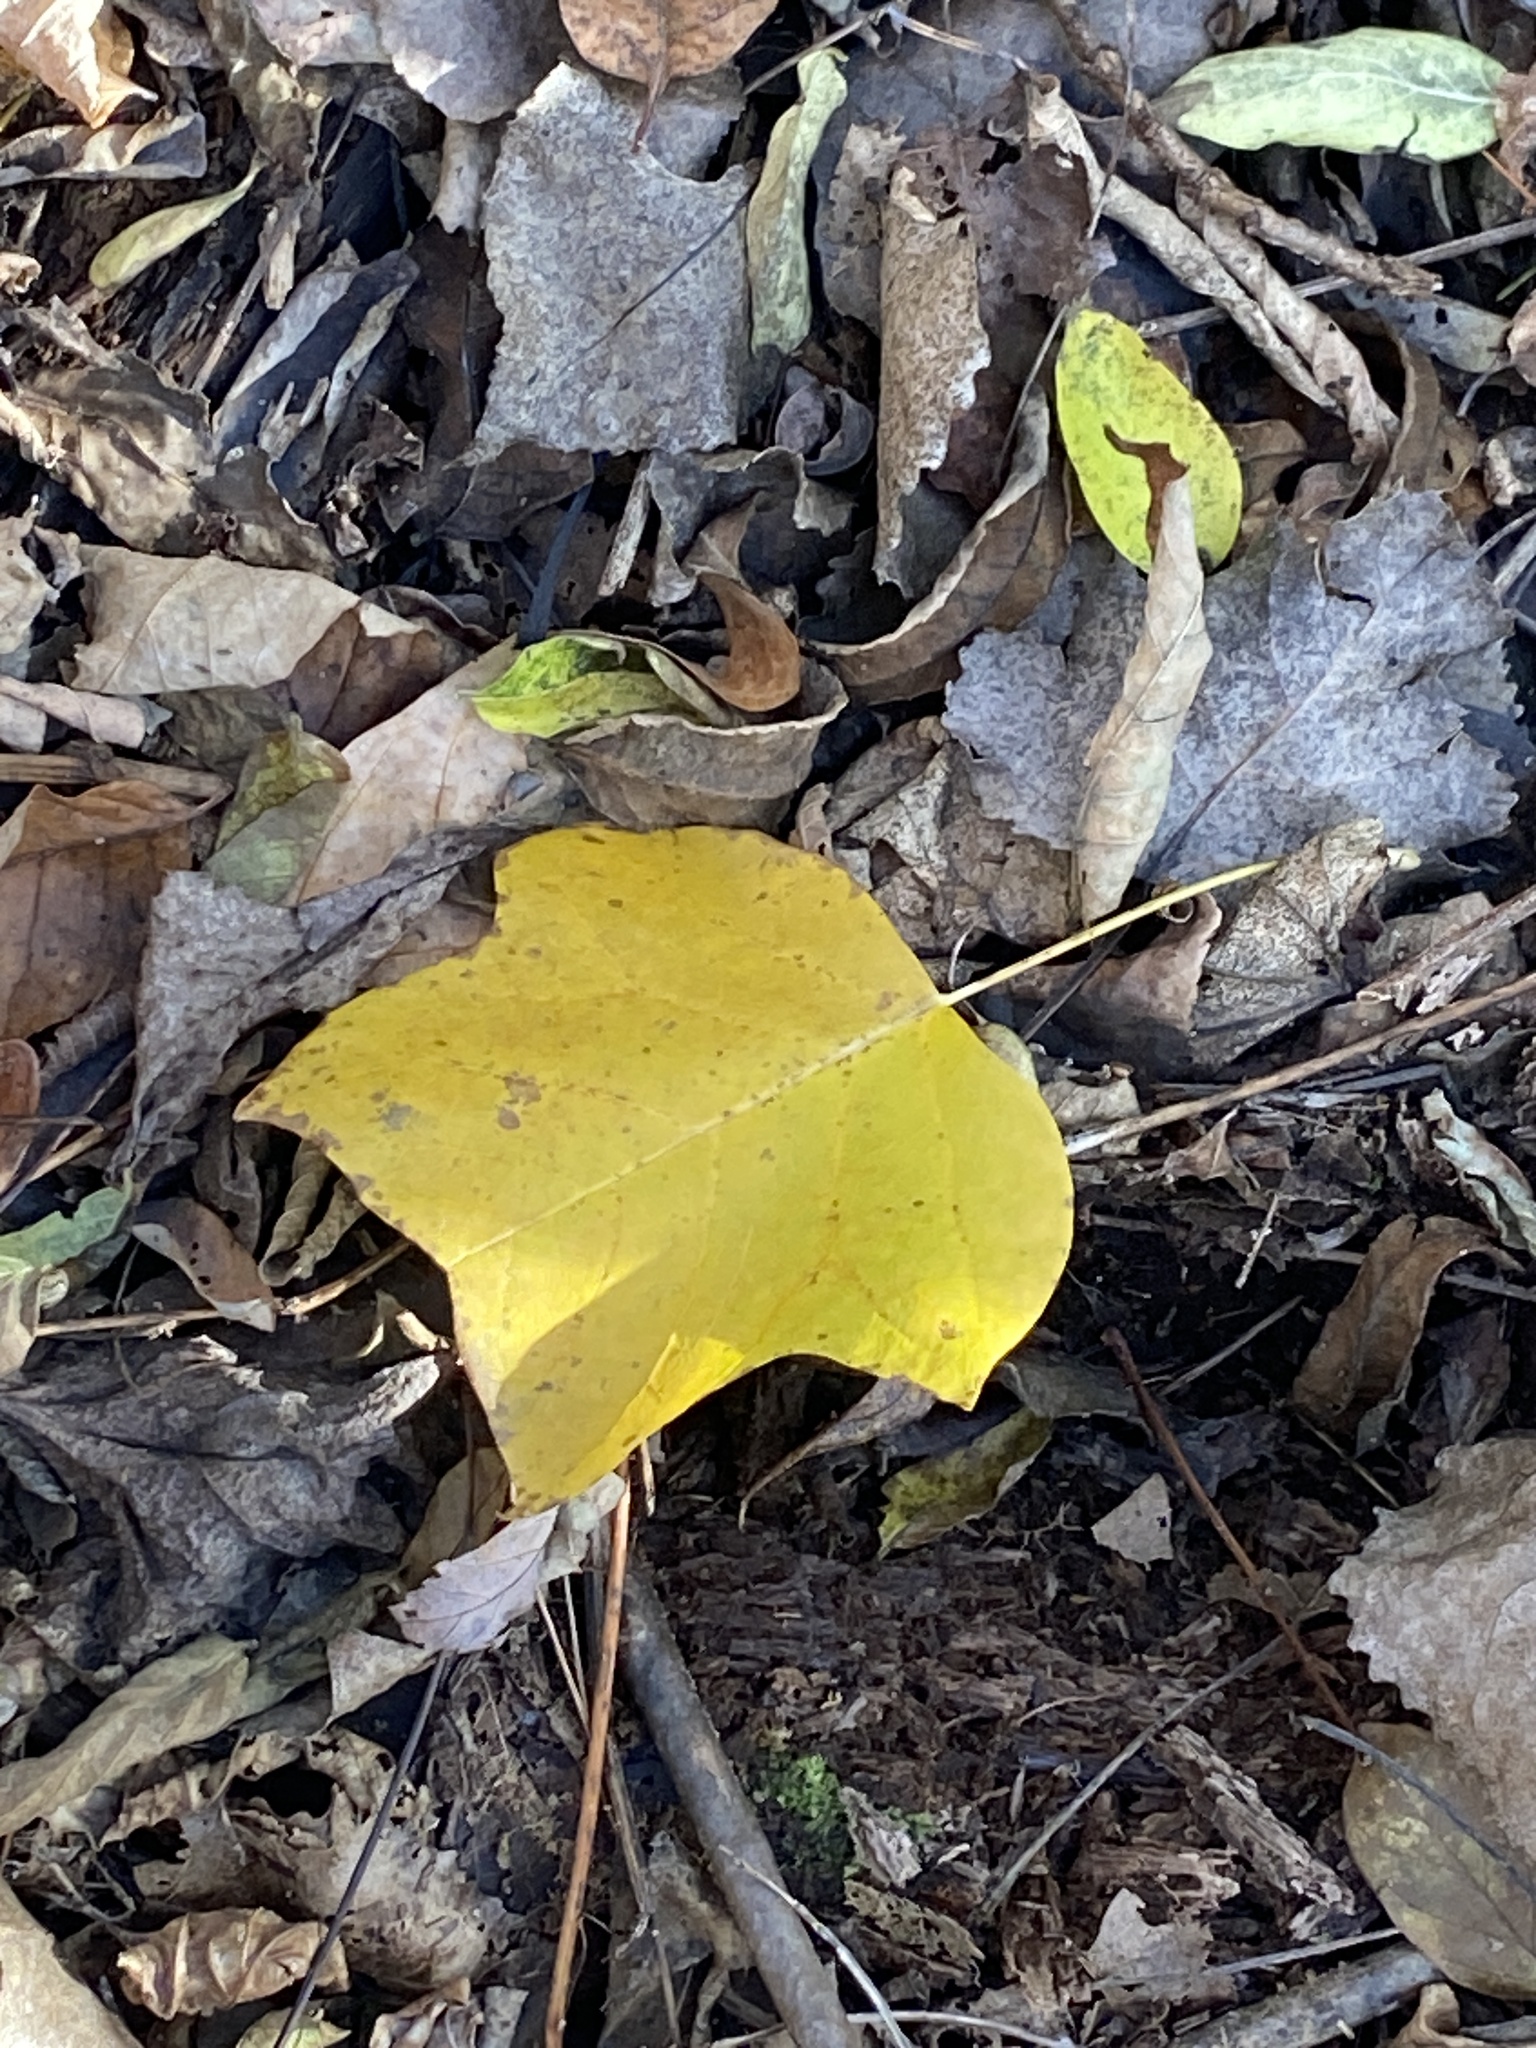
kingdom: Plantae
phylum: Tracheophyta
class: Magnoliopsida
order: Magnoliales
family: Magnoliaceae
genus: Liriodendron
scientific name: Liriodendron tulipifera
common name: Tulip tree
